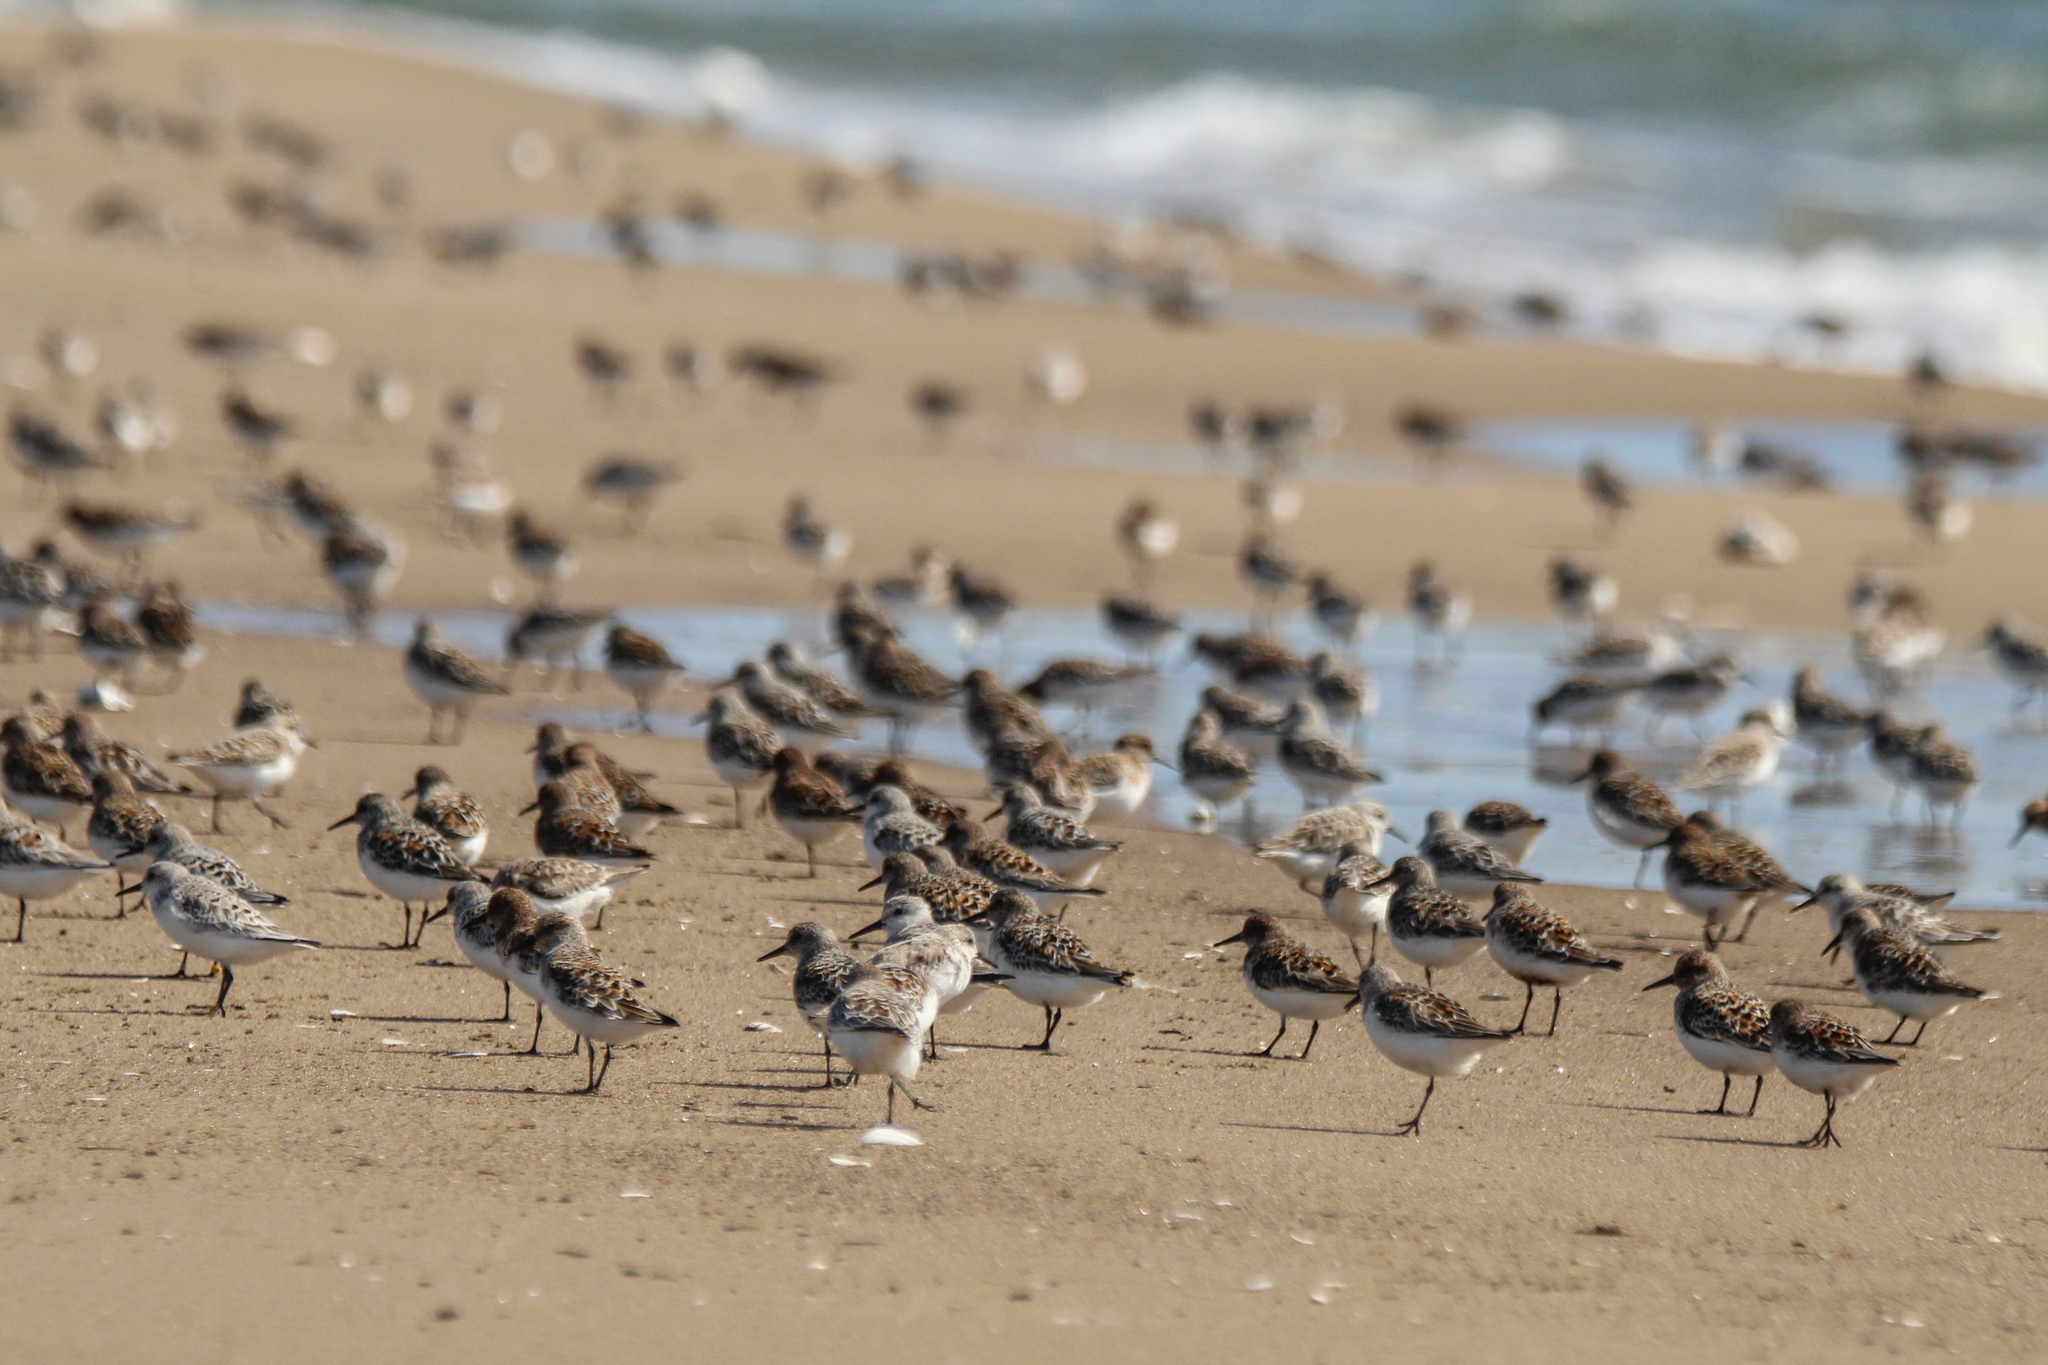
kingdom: Animalia
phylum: Chordata
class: Aves
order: Charadriiformes
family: Scolopacidae
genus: Calidris
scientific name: Calidris alba
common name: Sanderling
